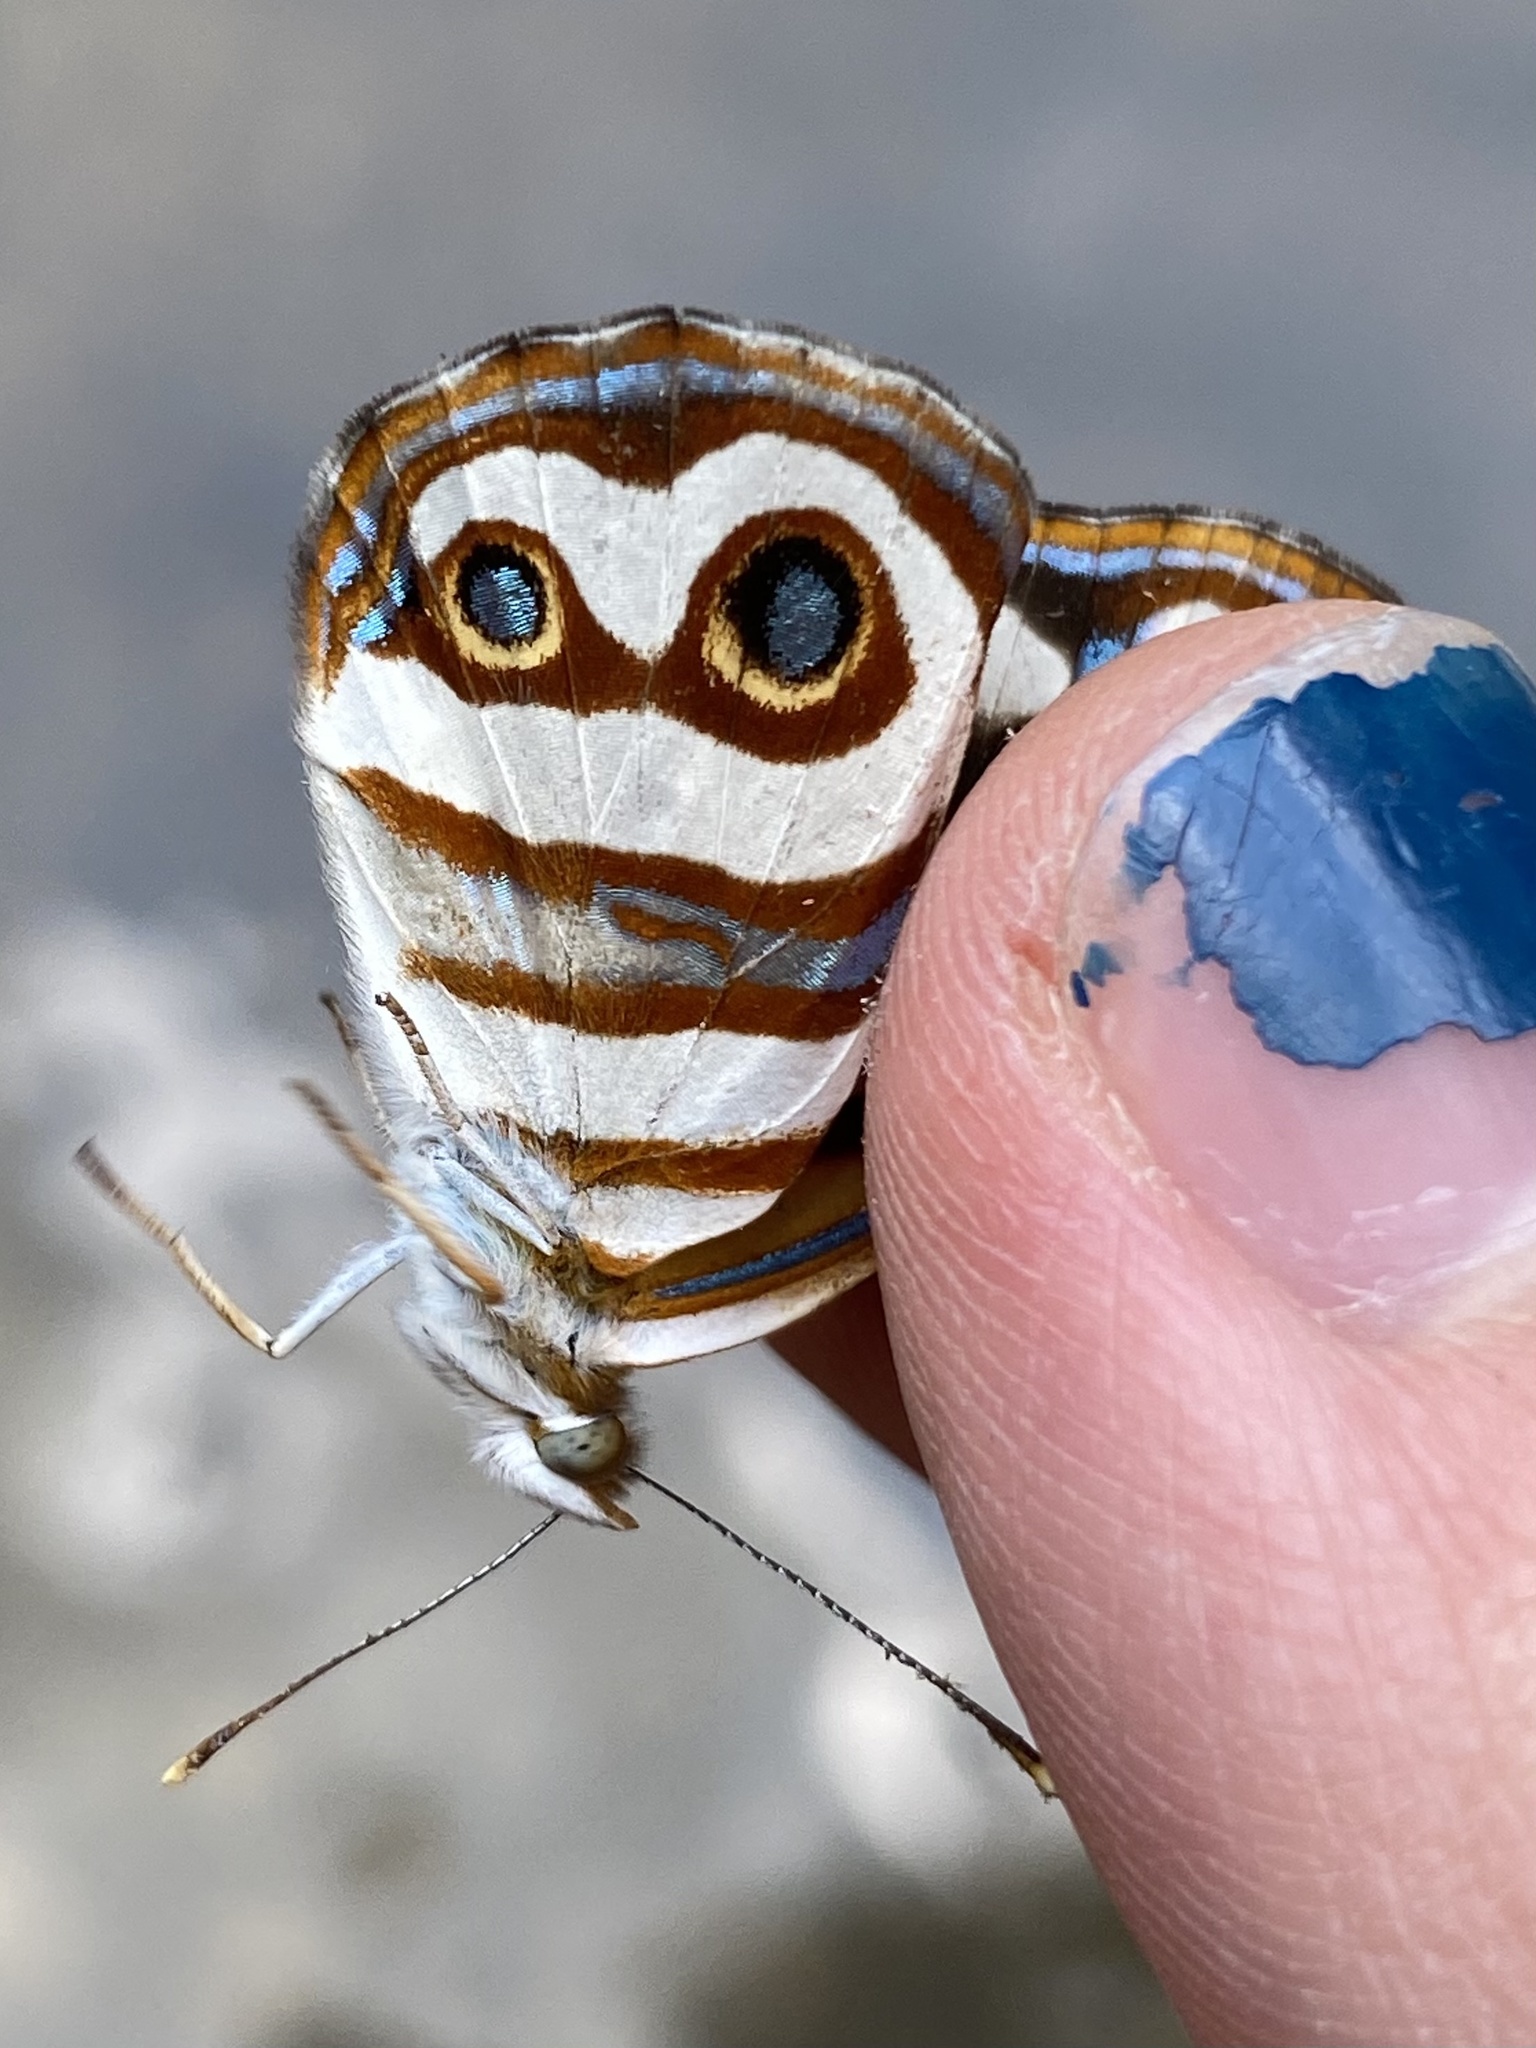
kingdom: Animalia
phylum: Arthropoda
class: Insecta
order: Lepidoptera
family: Nymphalidae
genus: Dynamine
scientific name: Dynamine dyonis
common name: Blue-eyed sailor
